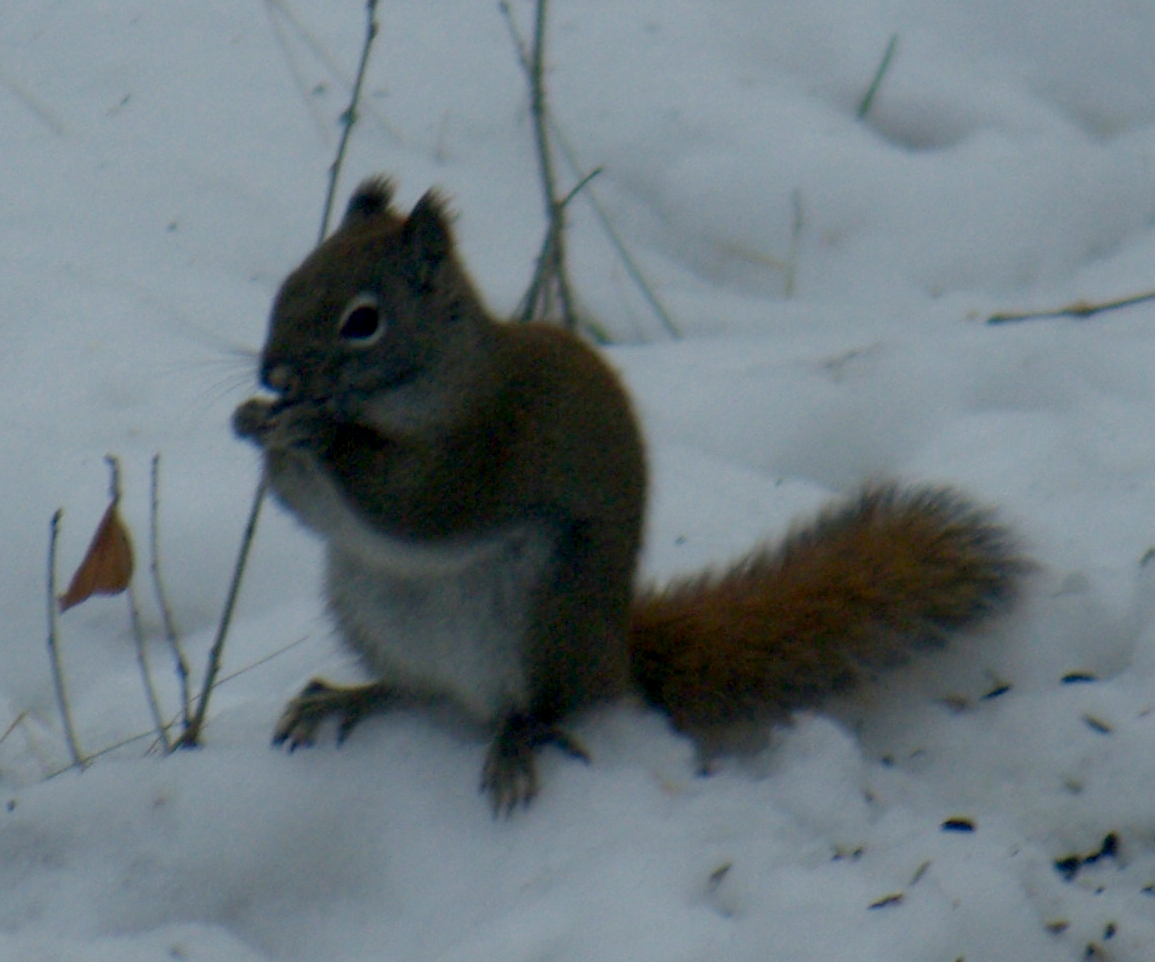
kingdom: Animalia
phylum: Chordata
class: Mammalia
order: Rodentia
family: Sciuridae
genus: Tamiasciurus
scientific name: Tamiasciurus hudsonicus
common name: Red squirrel
